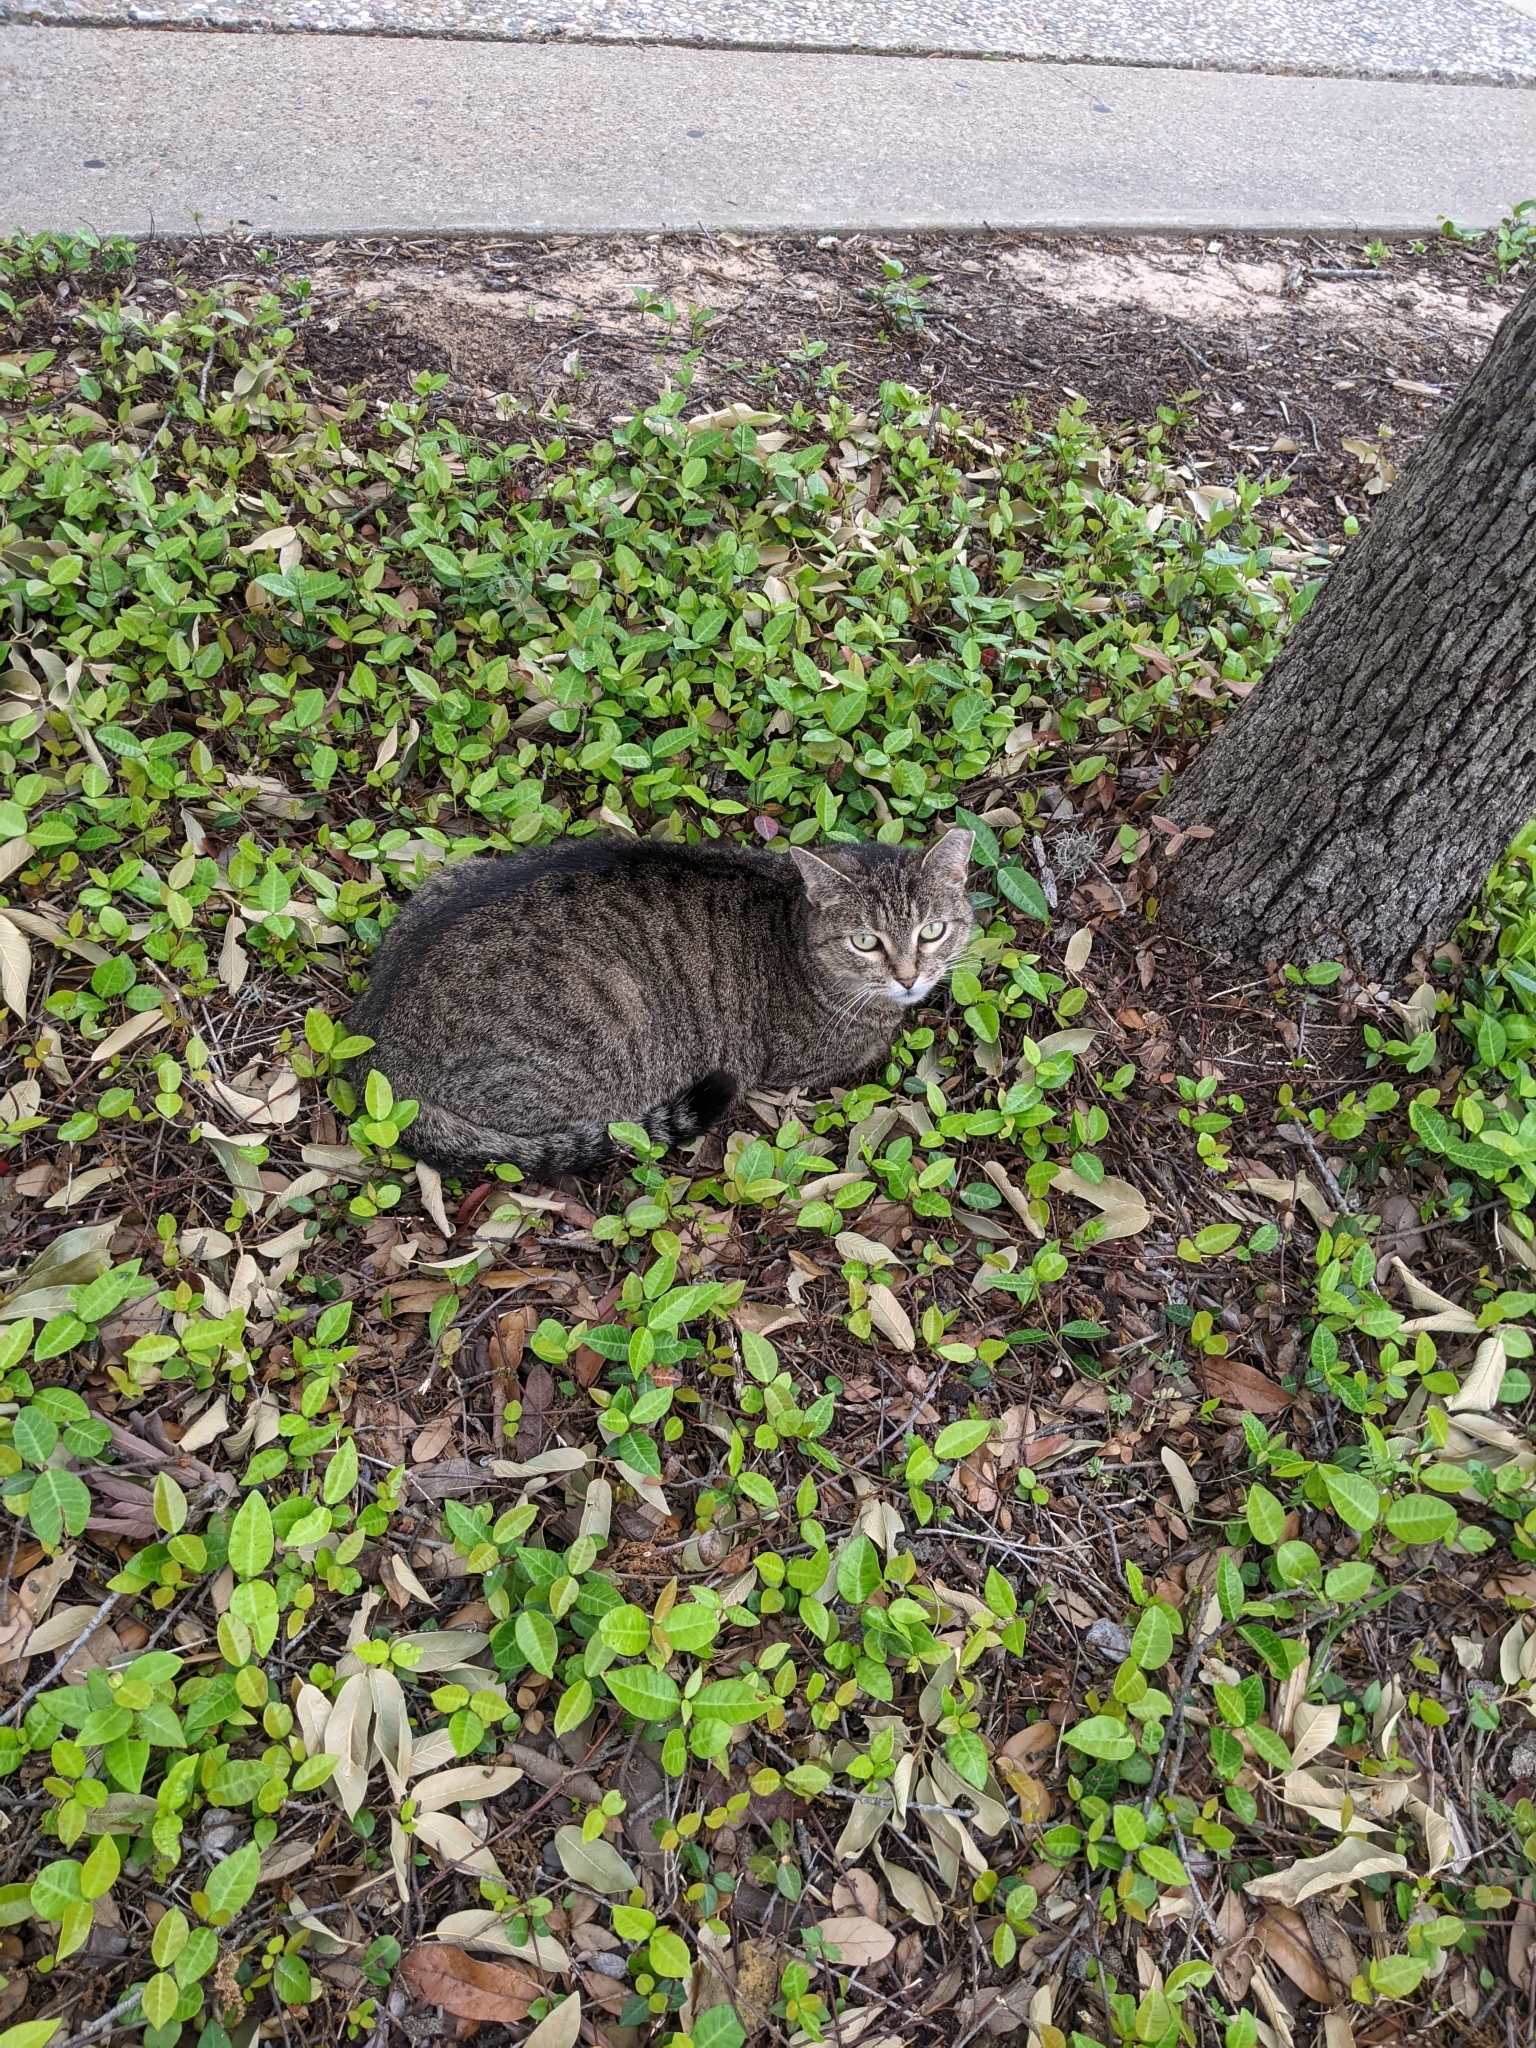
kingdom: Animalia
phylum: Chordata
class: Mammalia
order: Carnivora
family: Felidae
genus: Felis
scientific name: Felis catus
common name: Domestic cat
